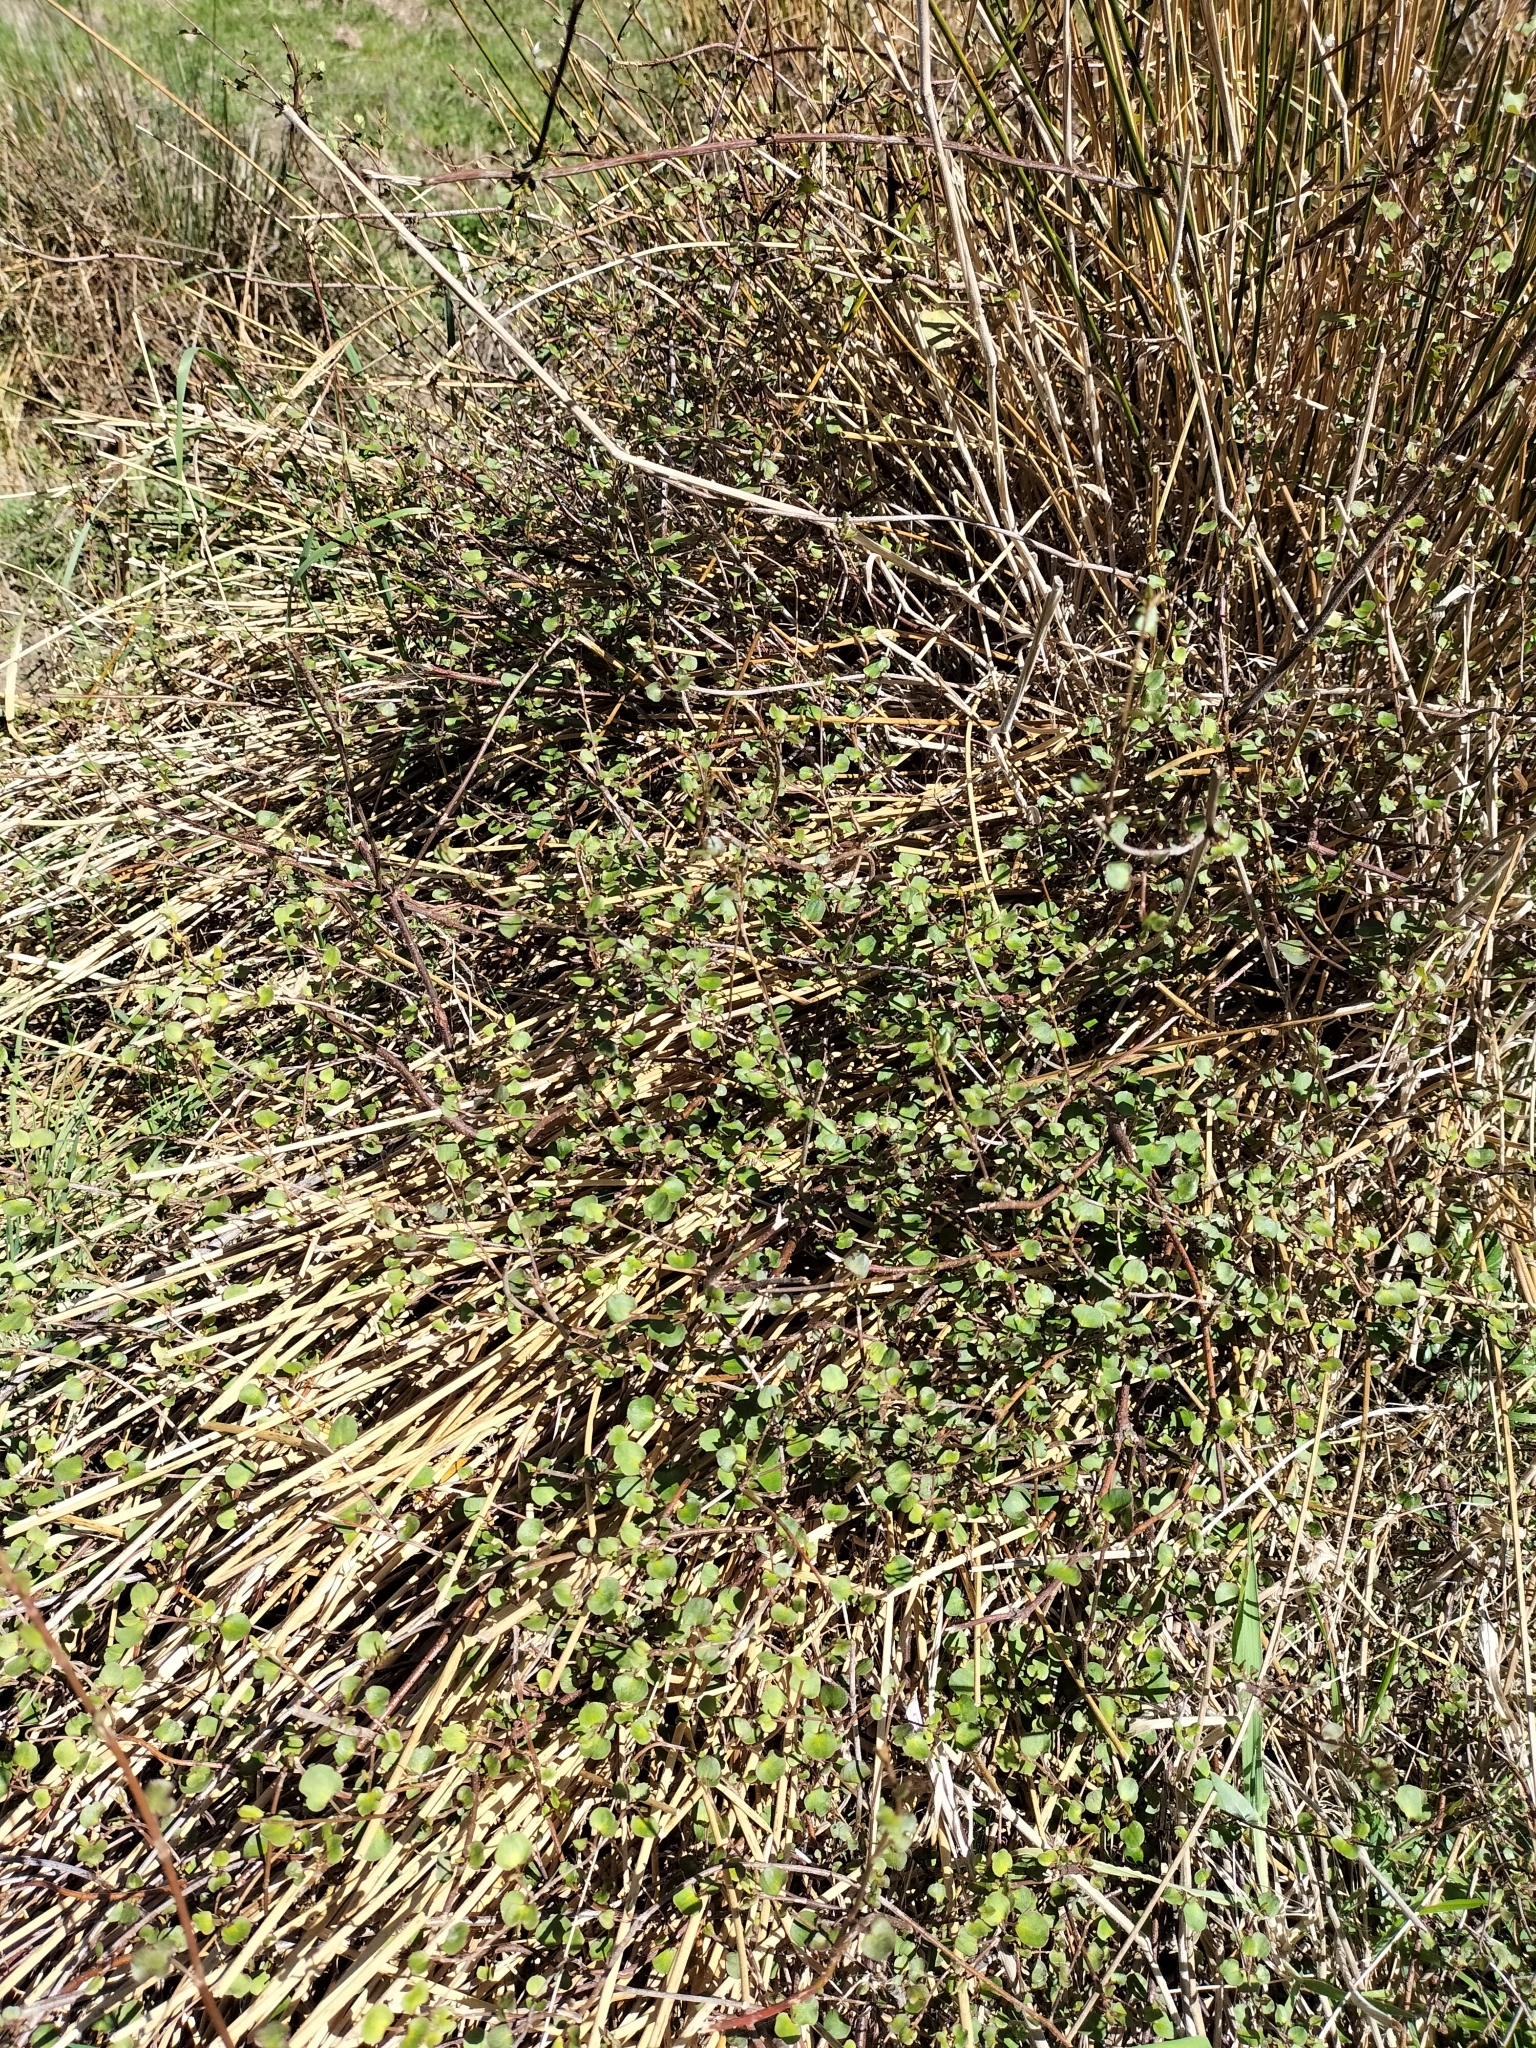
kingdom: Plantae
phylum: Tracheophyta
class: Magnoliopsida
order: Caryophyllales
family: Polygonaceae
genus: Muehlenbeckia
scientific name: Muehlenbeckia complexa
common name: Wireplant
